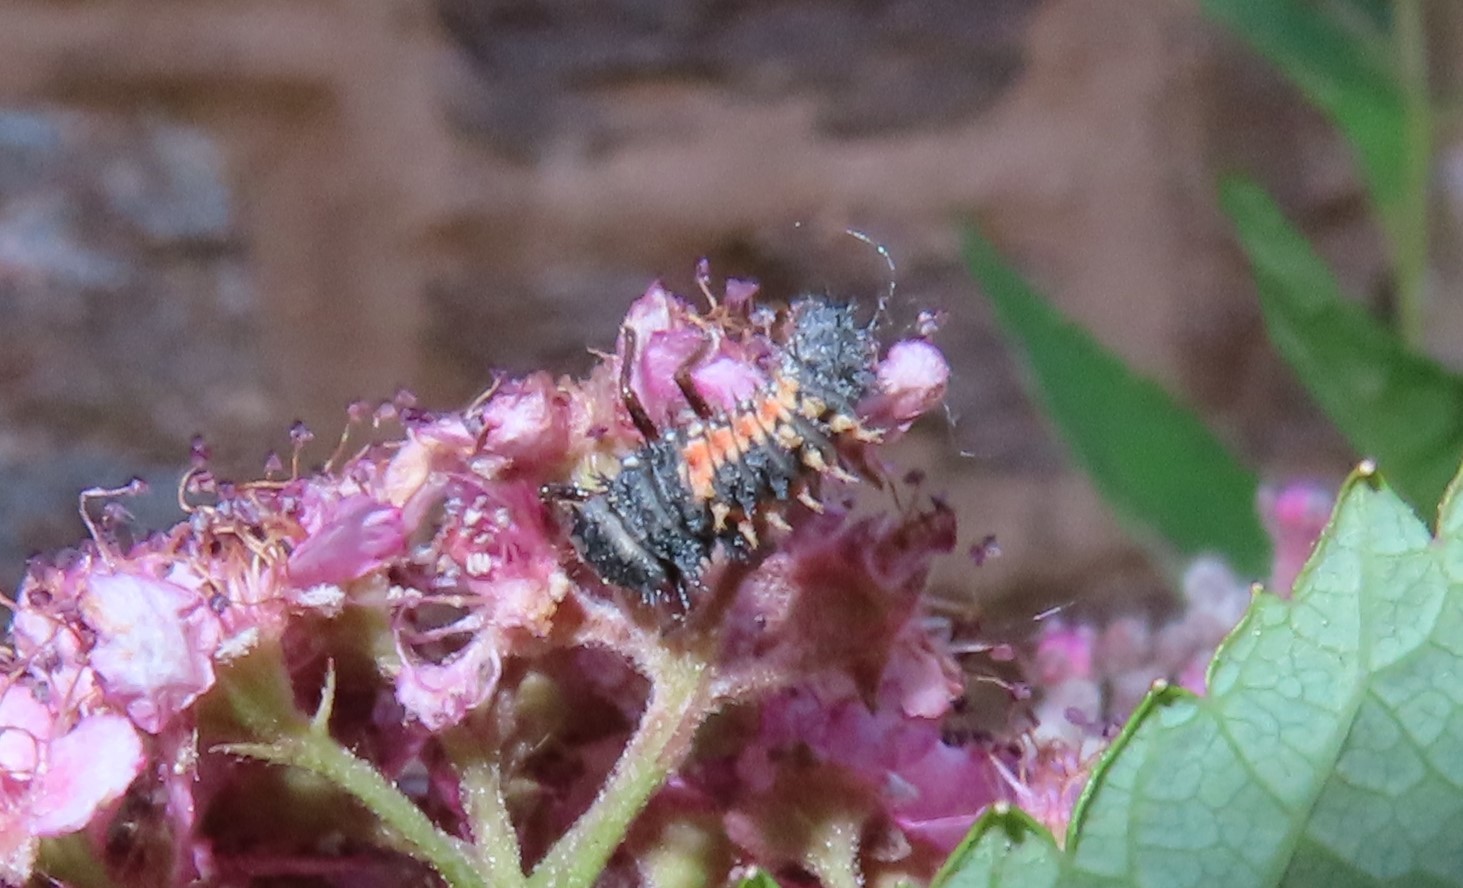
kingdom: Animalia
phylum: Arthropoda
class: Insecta
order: Coleoptera
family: Coccinellidae
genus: Harmonia
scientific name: Harmonia axyridis
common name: Harlequin ladybird
